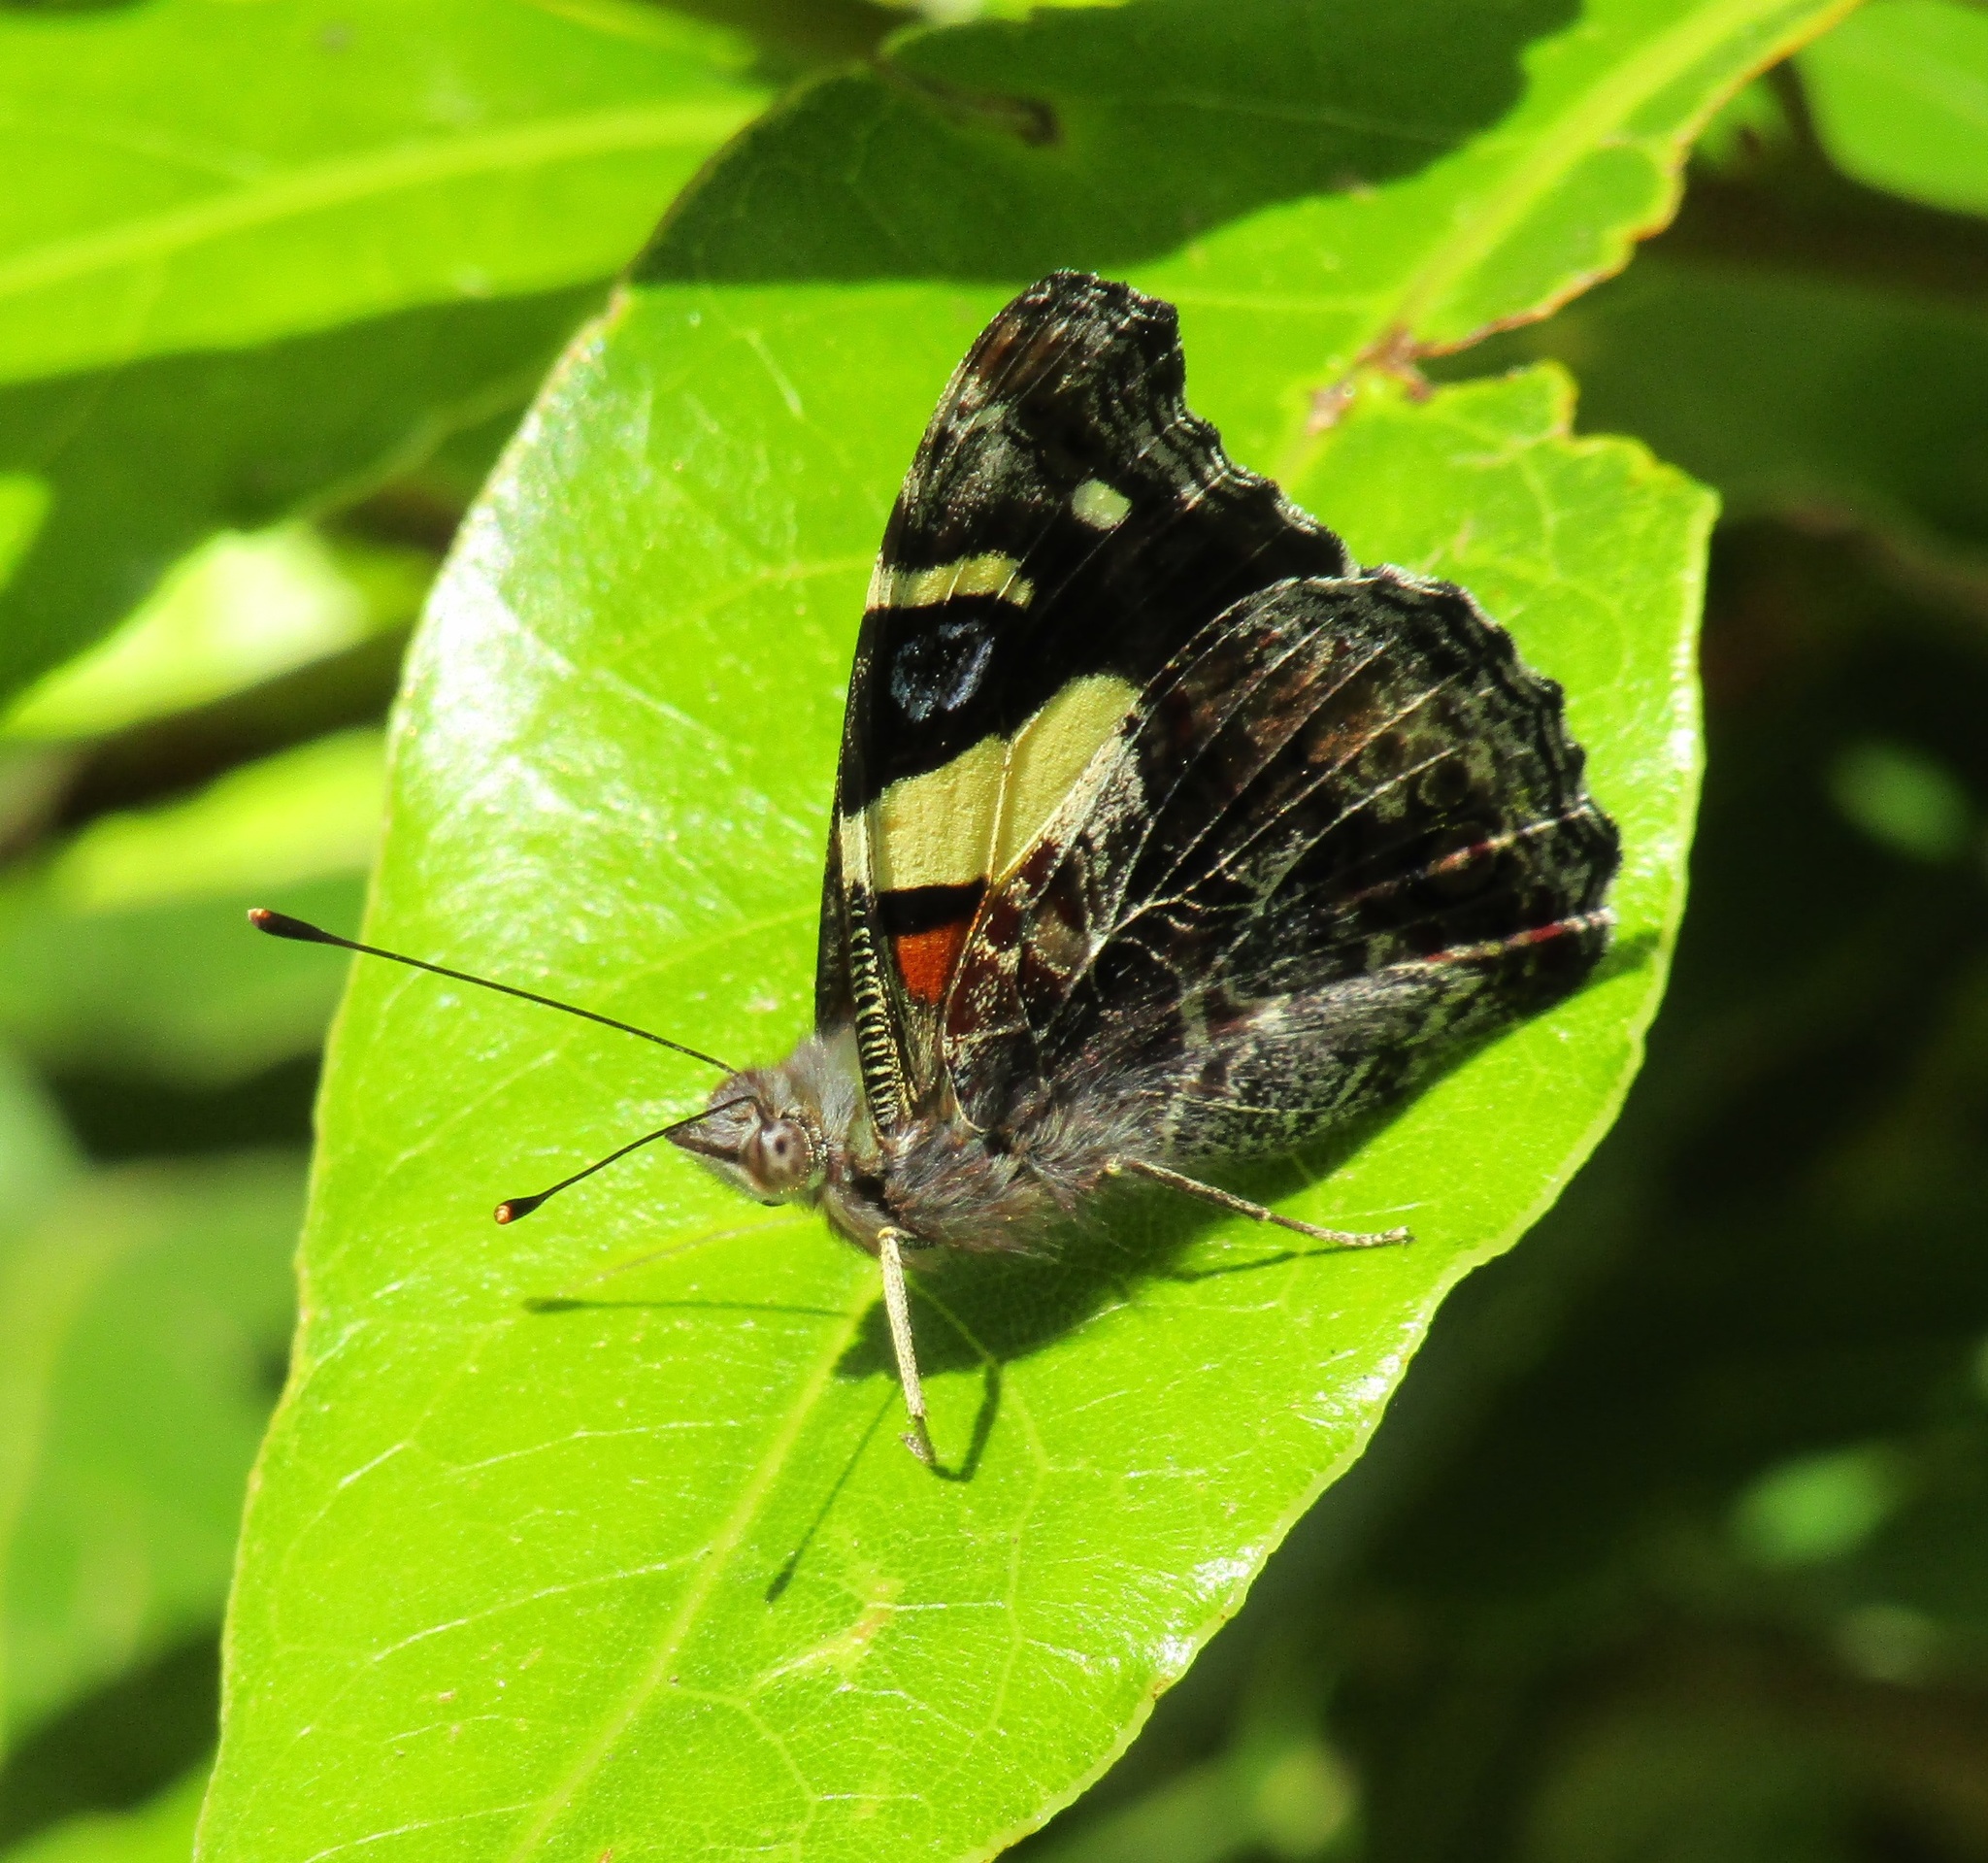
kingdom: Animalia
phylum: Arthropoda
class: Insecta
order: Lepidoptera
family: Nymphalidae
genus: Vanessa
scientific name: Vanessa itea
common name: Yellow admiral
